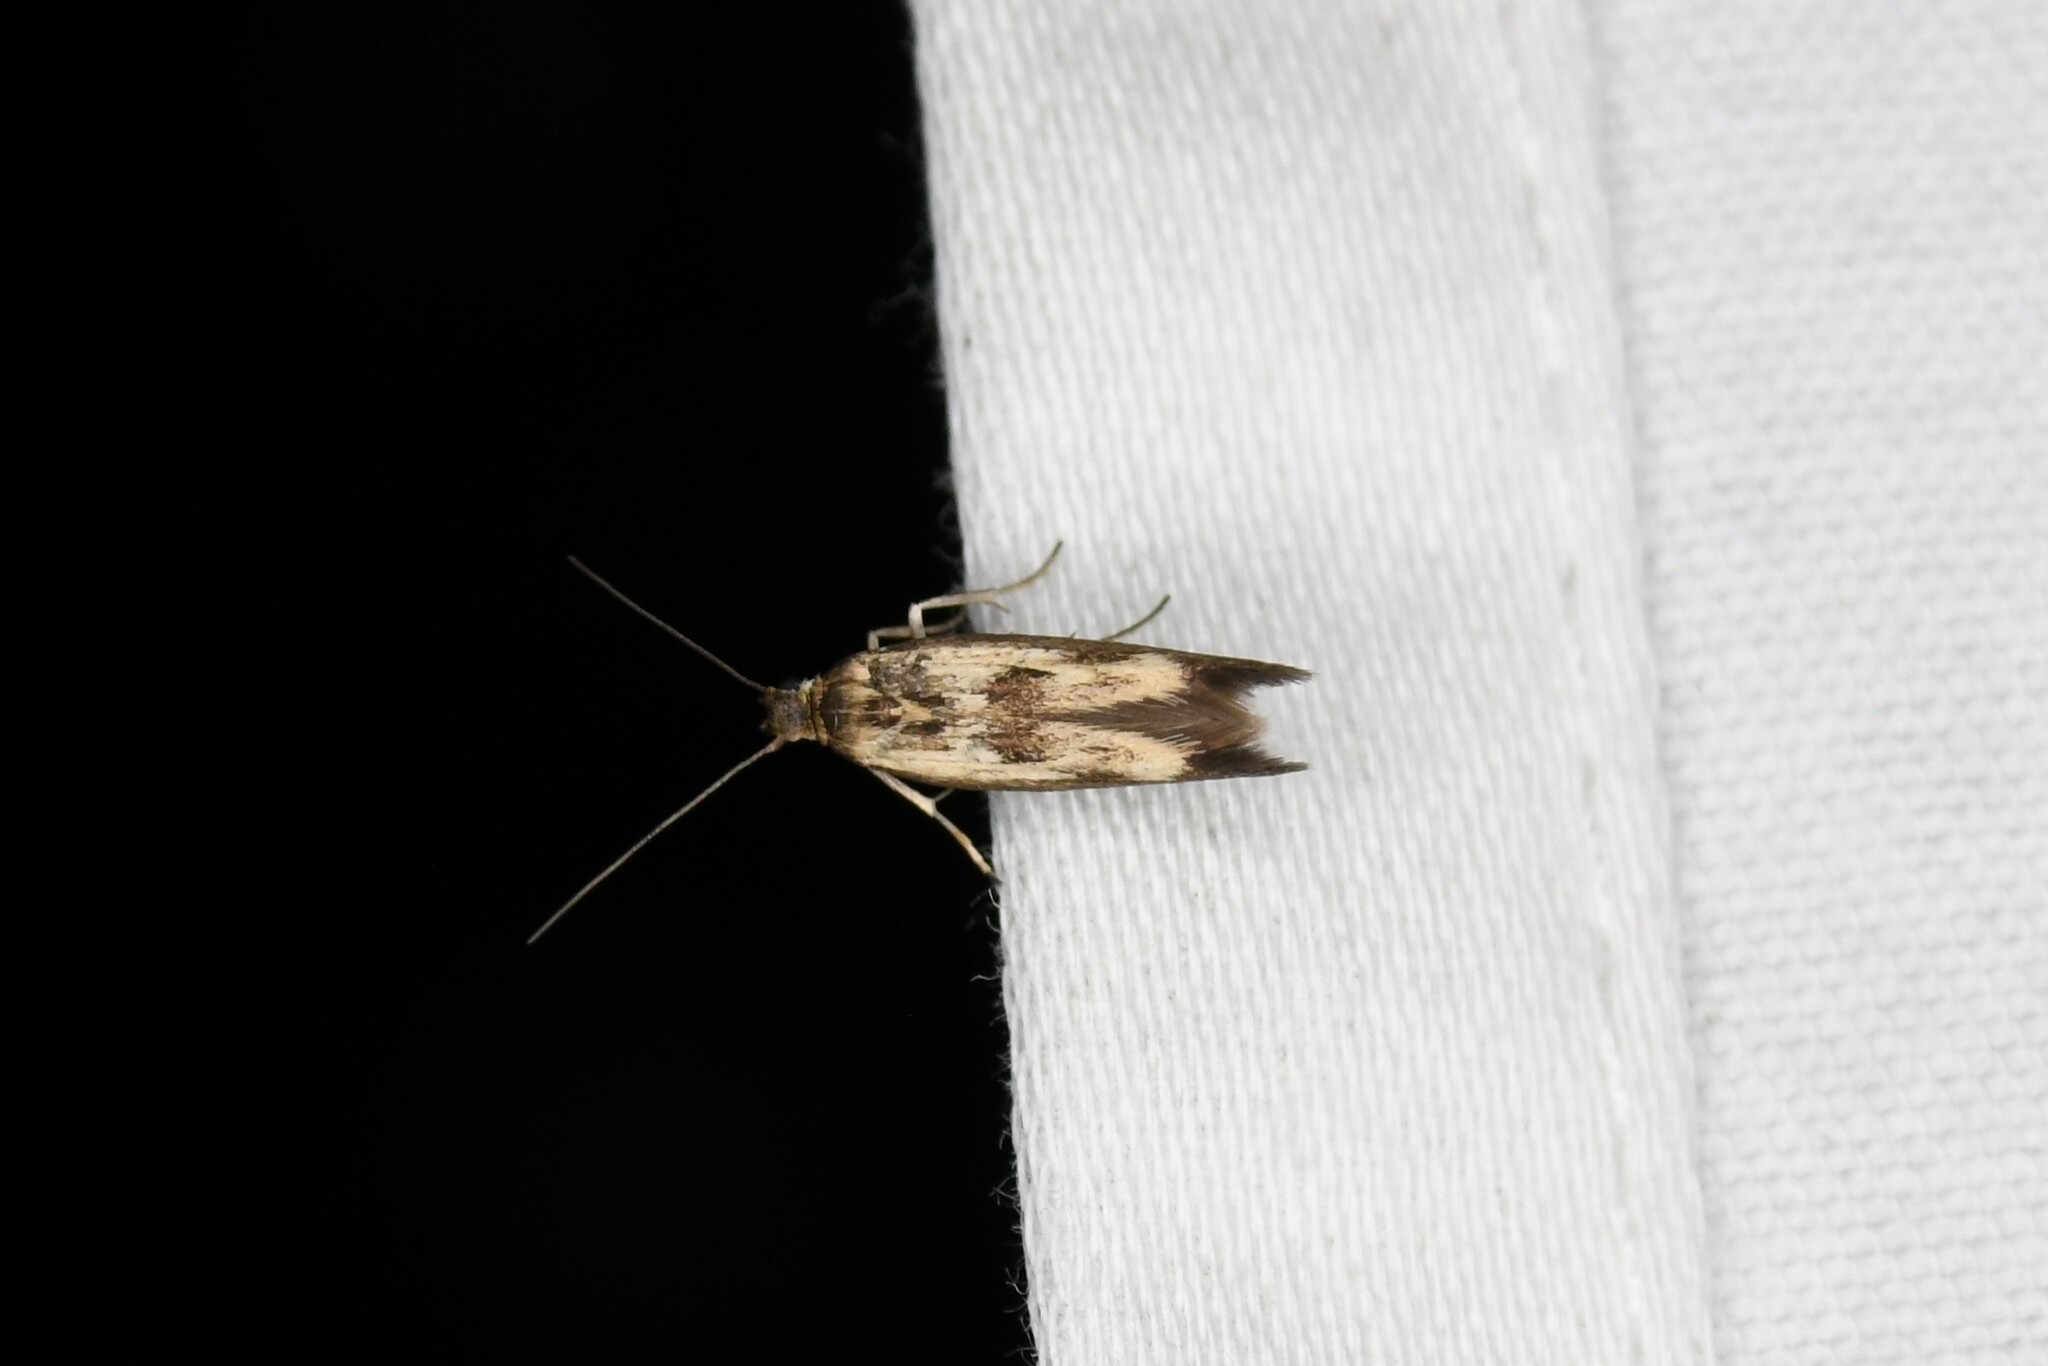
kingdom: Animalia
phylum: Arthropoda
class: Insecta
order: Lepidoptera
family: Scythrididae
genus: Scythris
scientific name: Scythris limbella
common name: Goosefoot owlet
